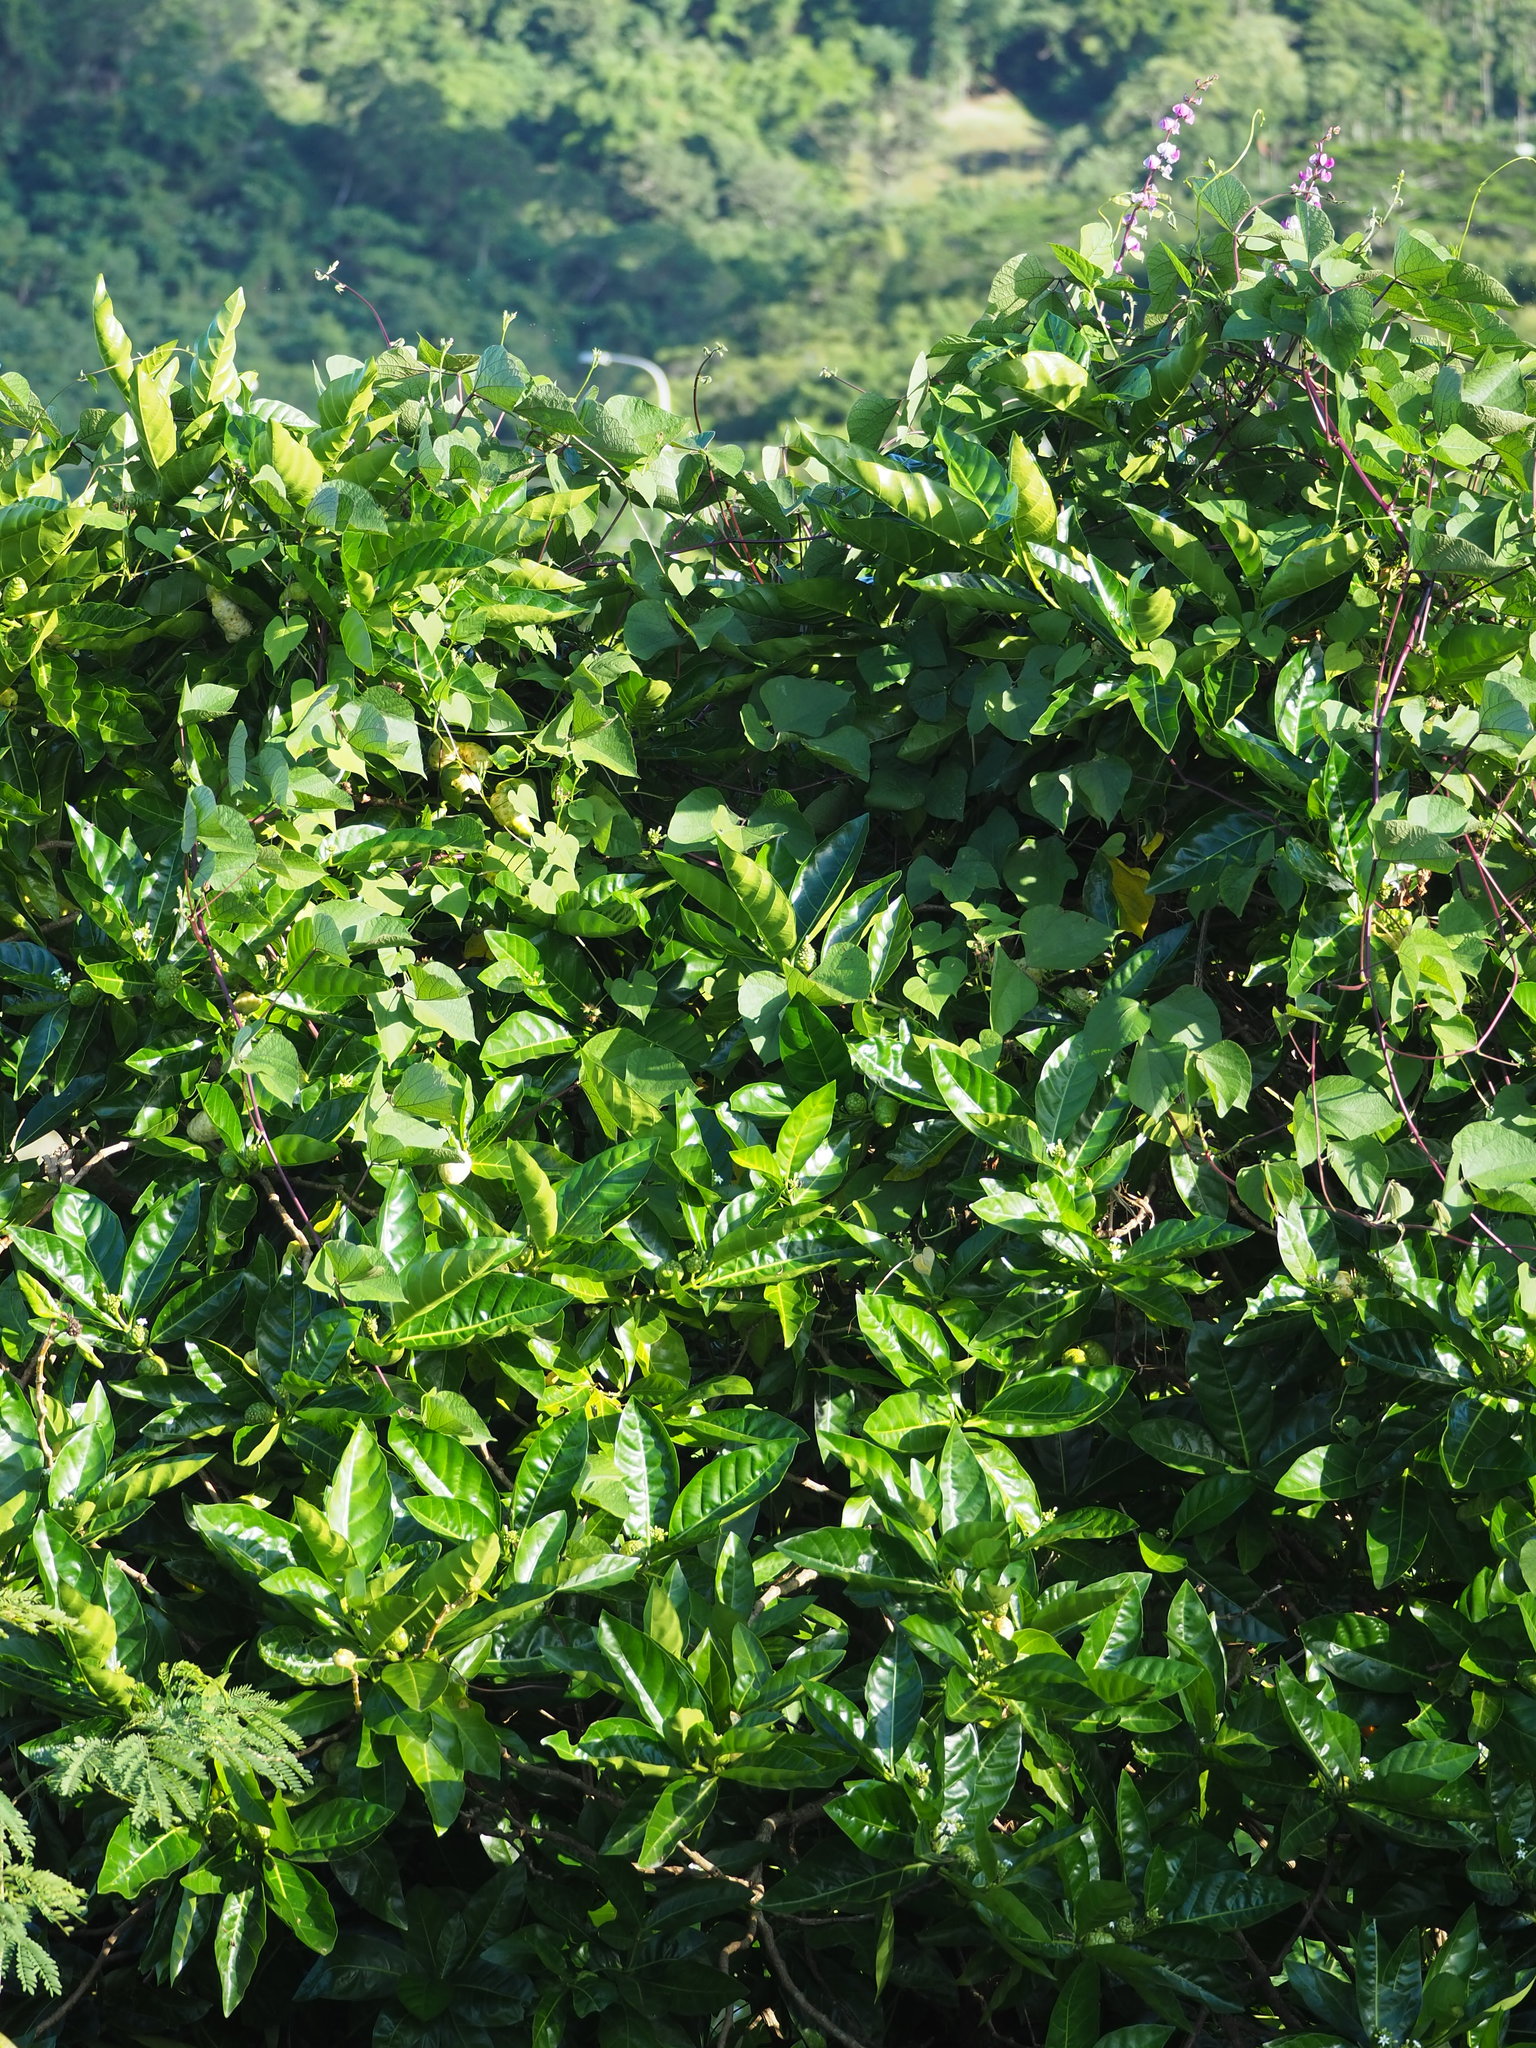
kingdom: Plantae
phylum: Tracheophyta
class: Magnoliopsida
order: Gentianales
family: Rubiaceae
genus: Morinda
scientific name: Morinda citrifolia
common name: Indian-mulberry
